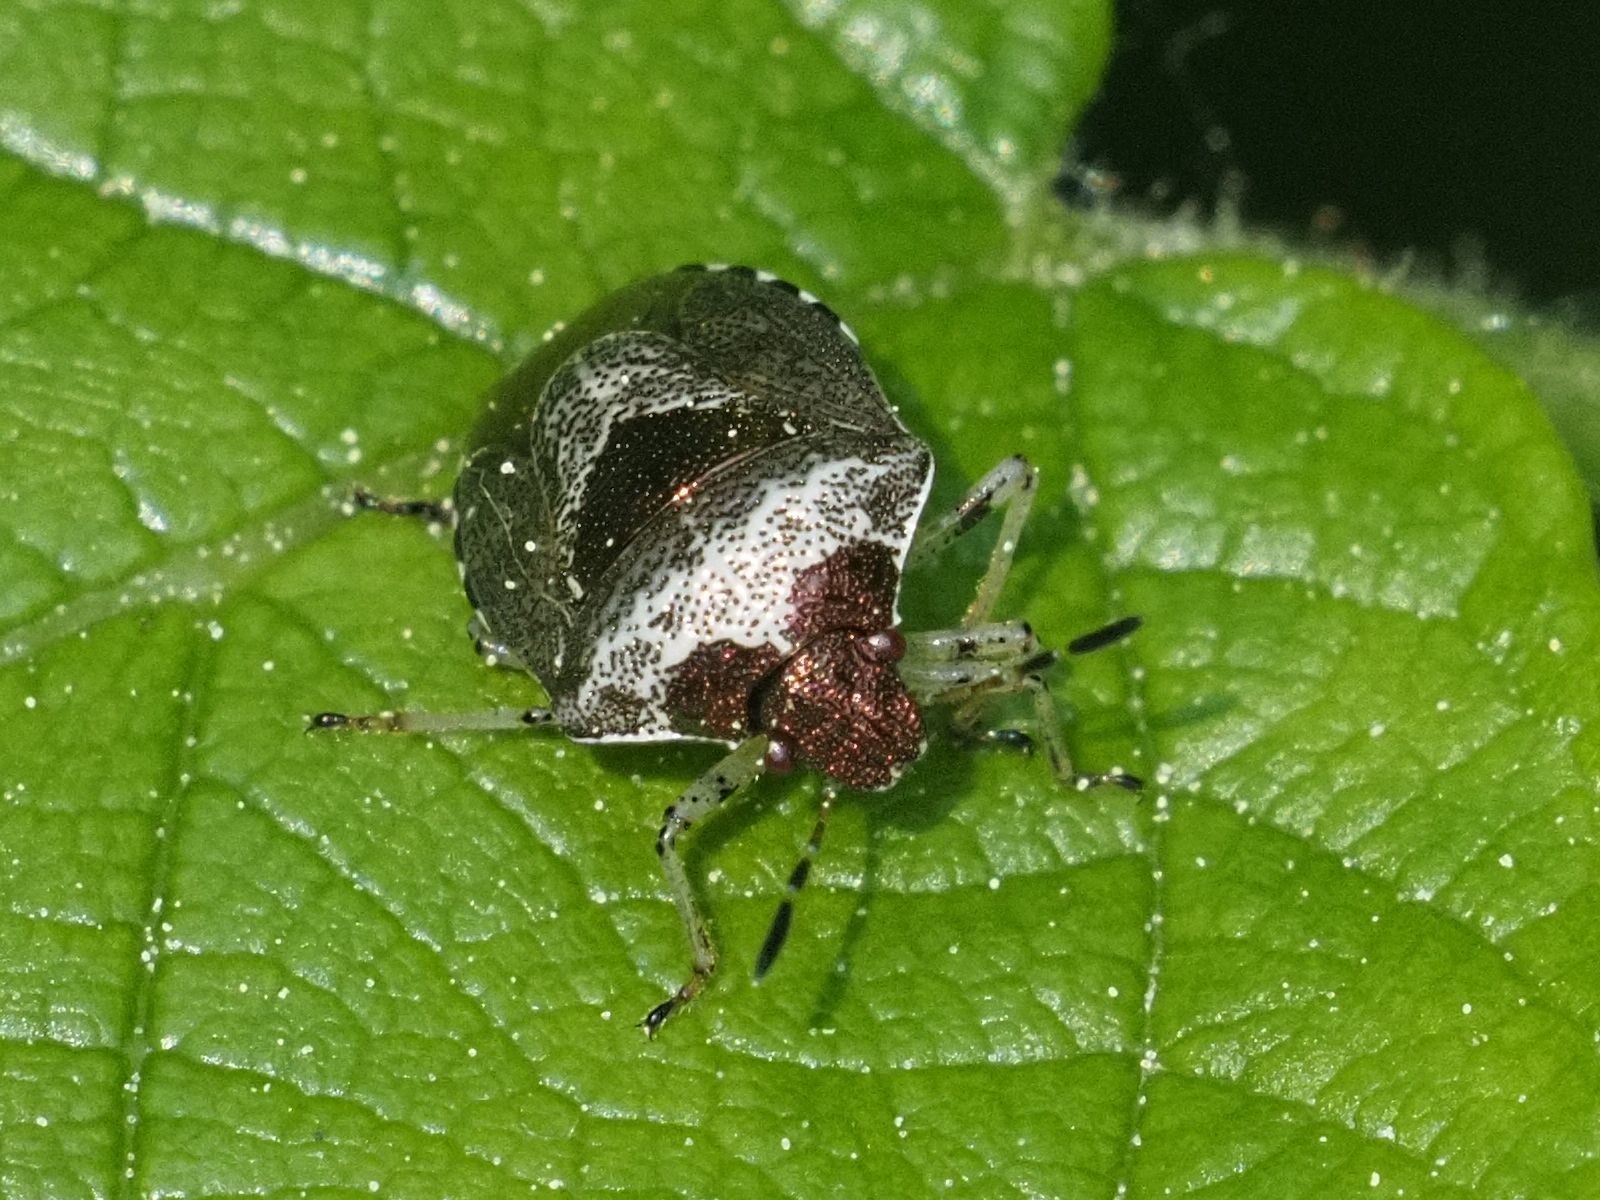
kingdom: Animalia
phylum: Arthropoda
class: Insecta
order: Hemiptera
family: Pentatomidae
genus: Eysarcoris
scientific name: Eysarcoris venustissimus
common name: Woundwort shieldbug
